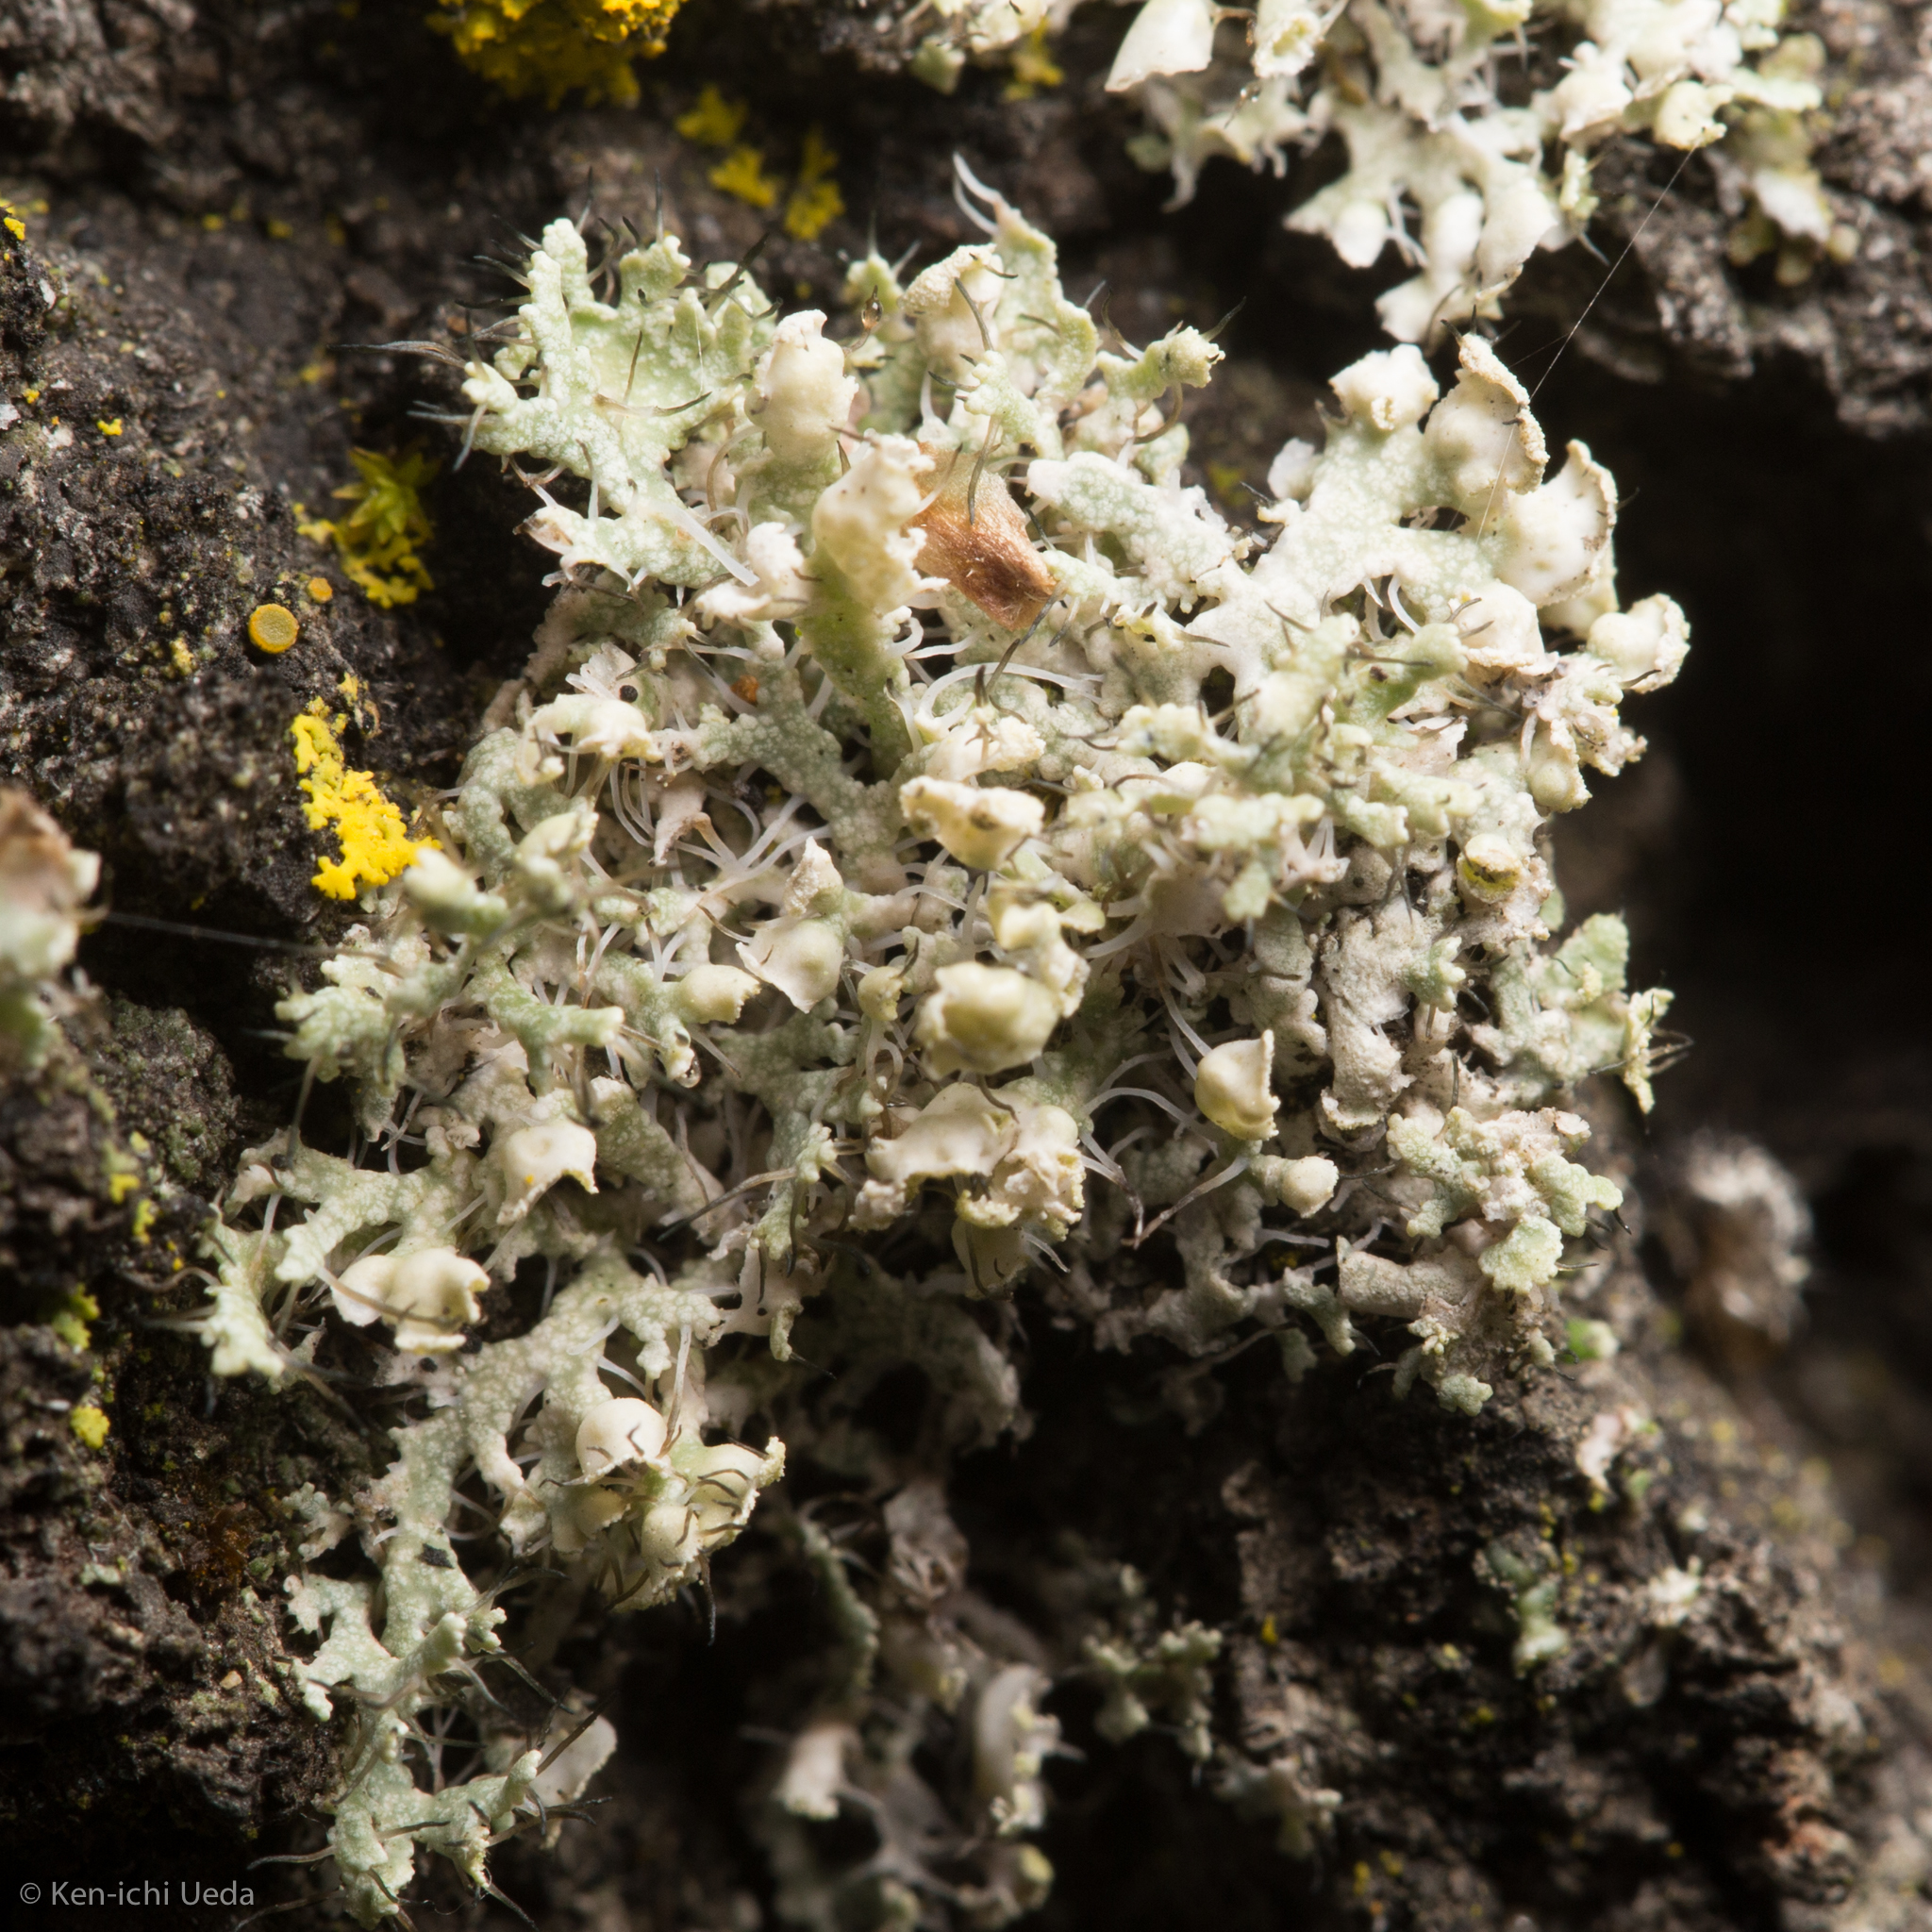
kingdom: Fungi
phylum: Ascomycota
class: Lecanoromycetes
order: Caliciales
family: Physciaceae
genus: Physcia
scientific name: Physcia adscendens
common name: Hooded rosette lichen
